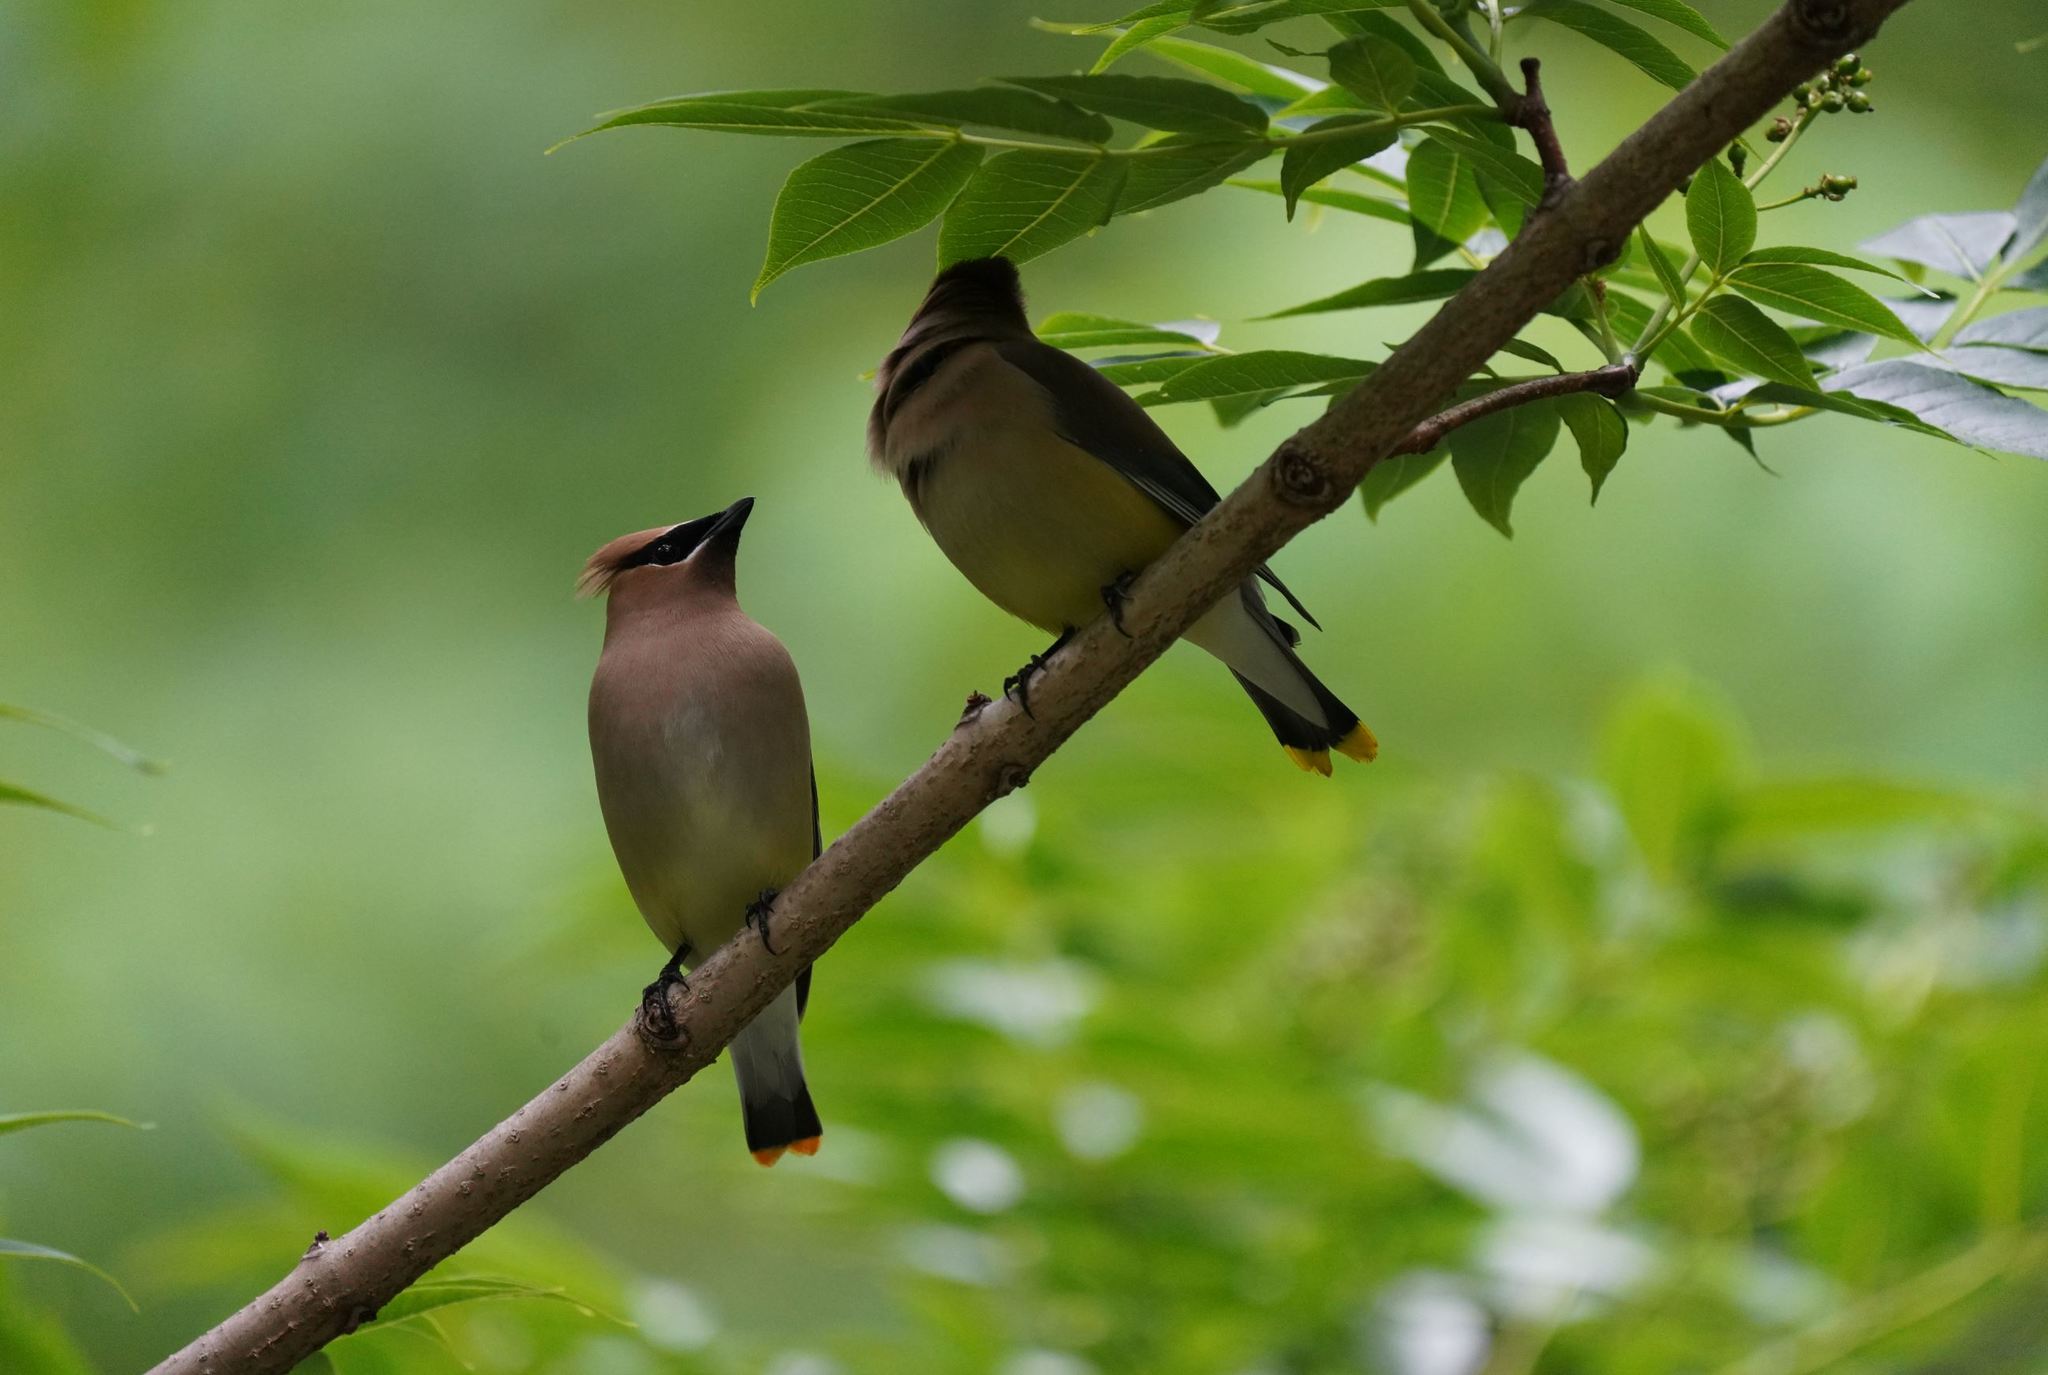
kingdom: Animalia
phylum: Chordata
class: Aves
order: Passeriformes
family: Bombycillidae
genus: Bombycilla
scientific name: Bombycilla cedrorum
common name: Cedar waxwing
